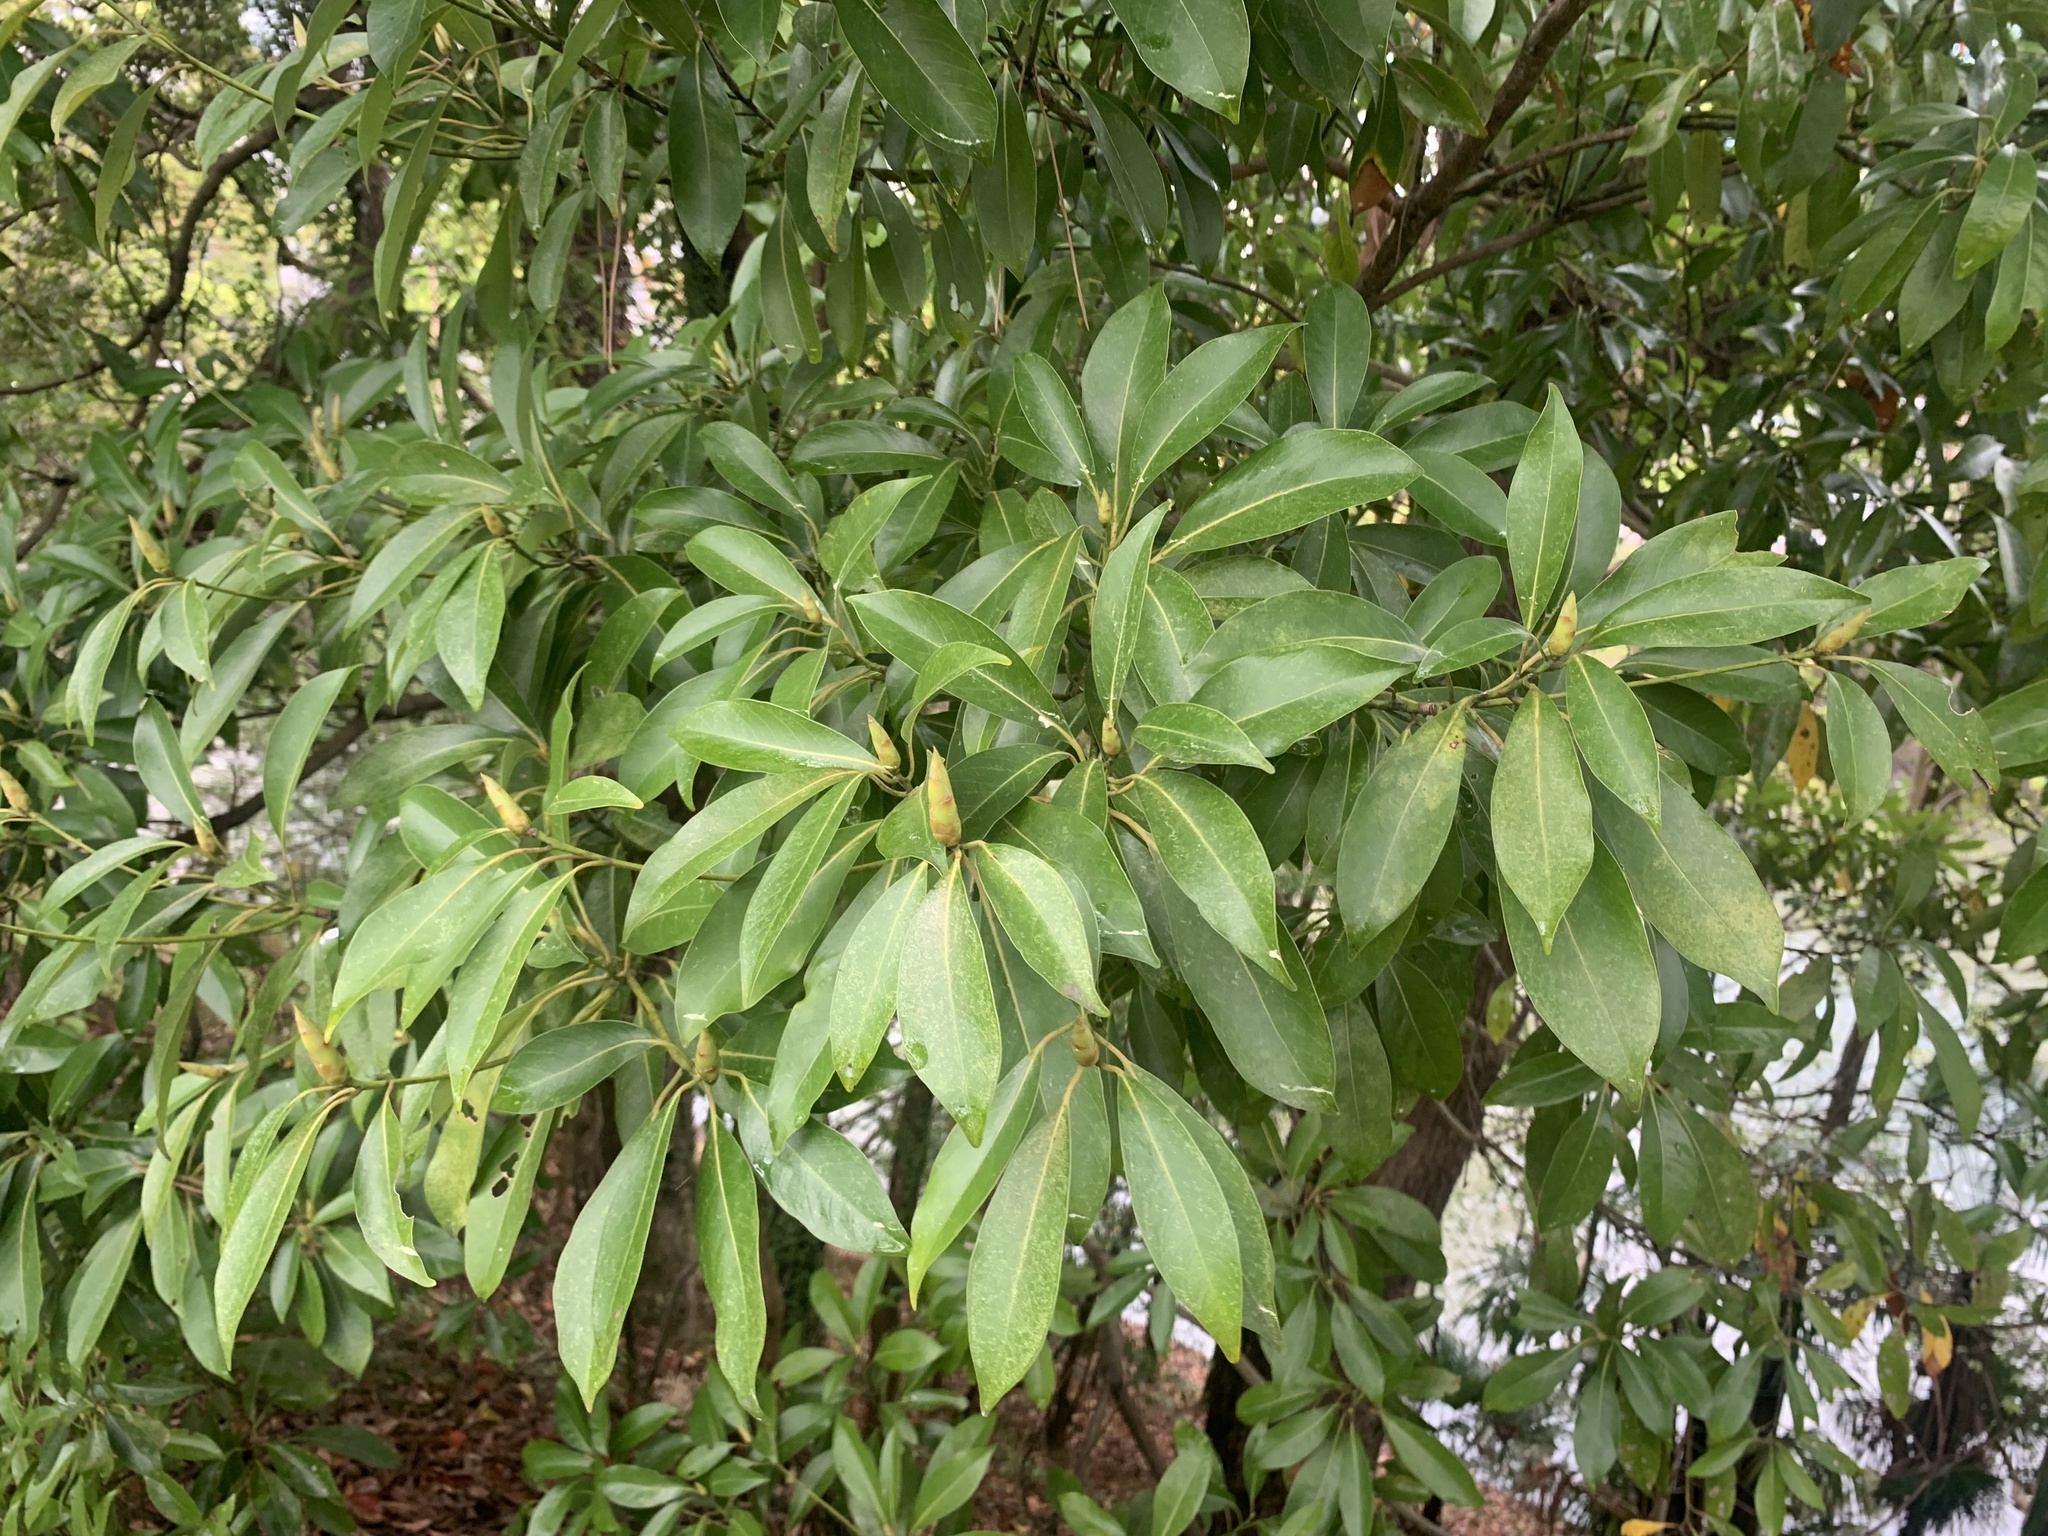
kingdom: Plantae
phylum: Tracheophyta
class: Magnoliopsida
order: Laurales
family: Lauraceae
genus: Machilus
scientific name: Machilus thunbergii
